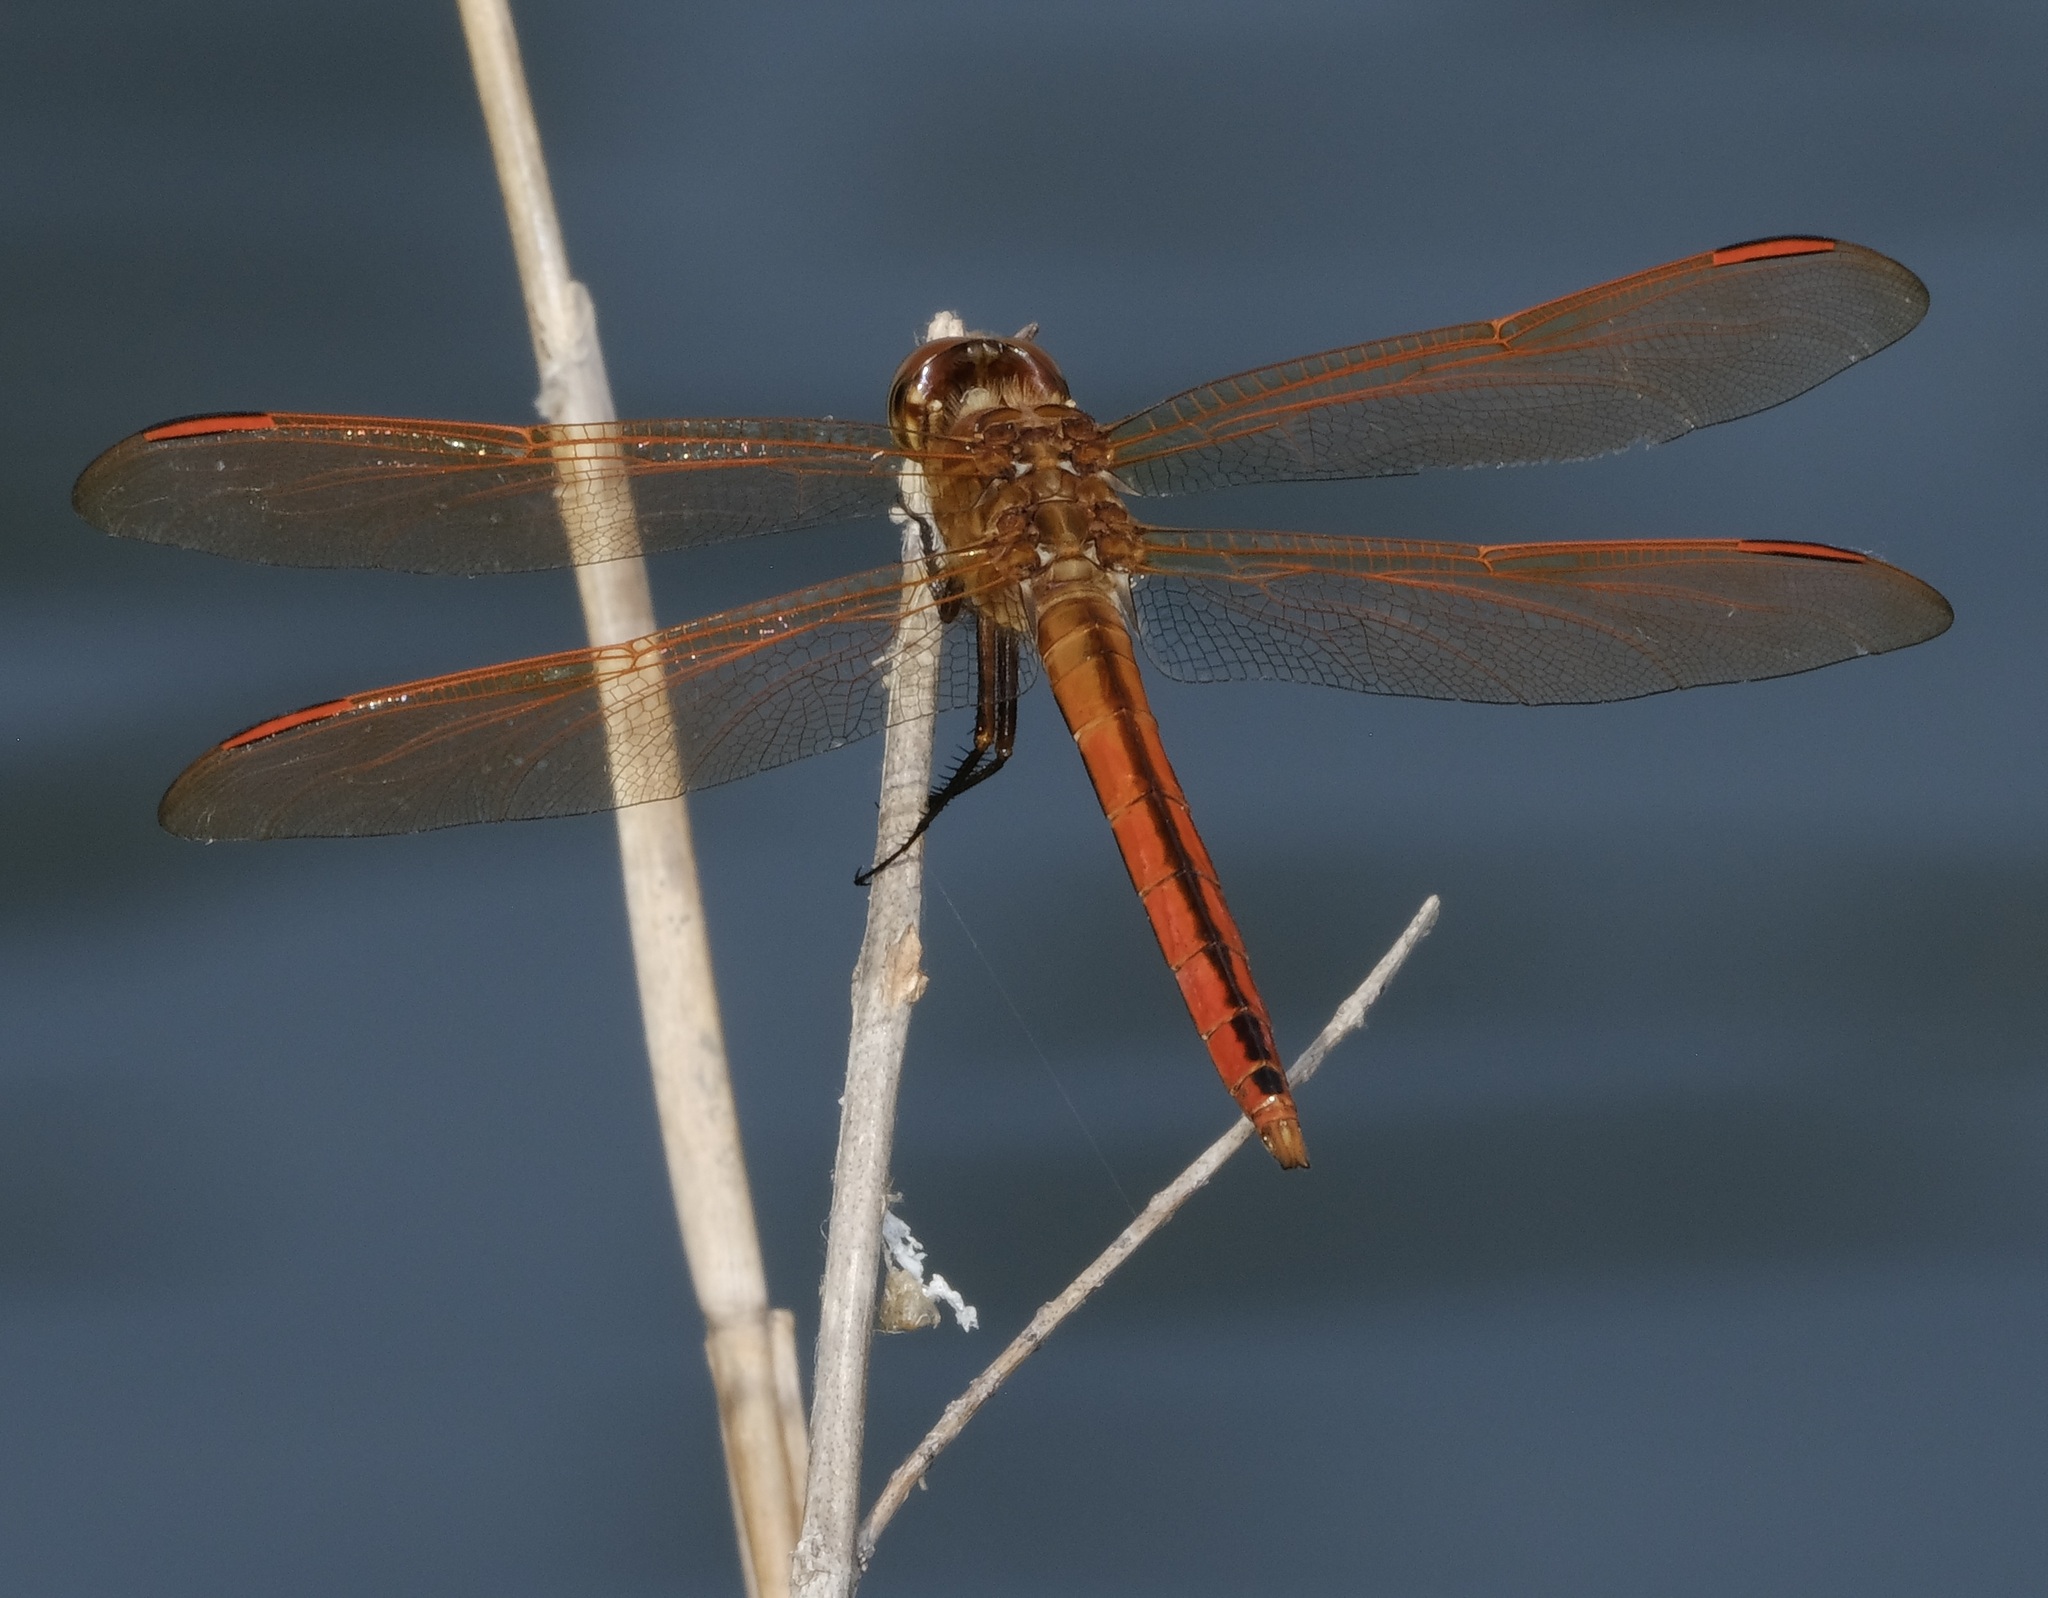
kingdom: Animalia
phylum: Arthropoda
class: Insecta
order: Odonata
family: Libellulidae
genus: Libellula
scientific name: Libellula auripennis
